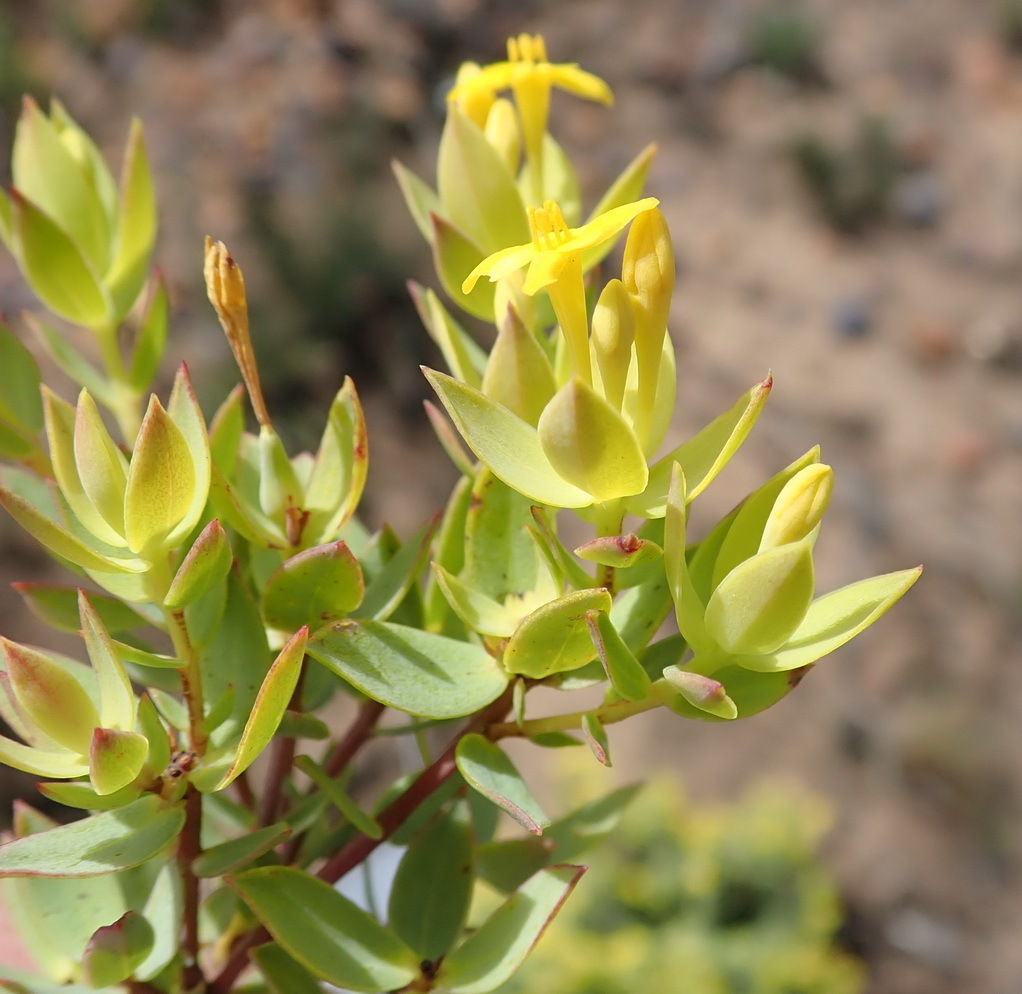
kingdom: Plantae
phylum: Tracheophyta
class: Magnoliopsida
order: Malvales
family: Thymelaeaceae
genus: Gnidia
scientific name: Gnidia galpinii
